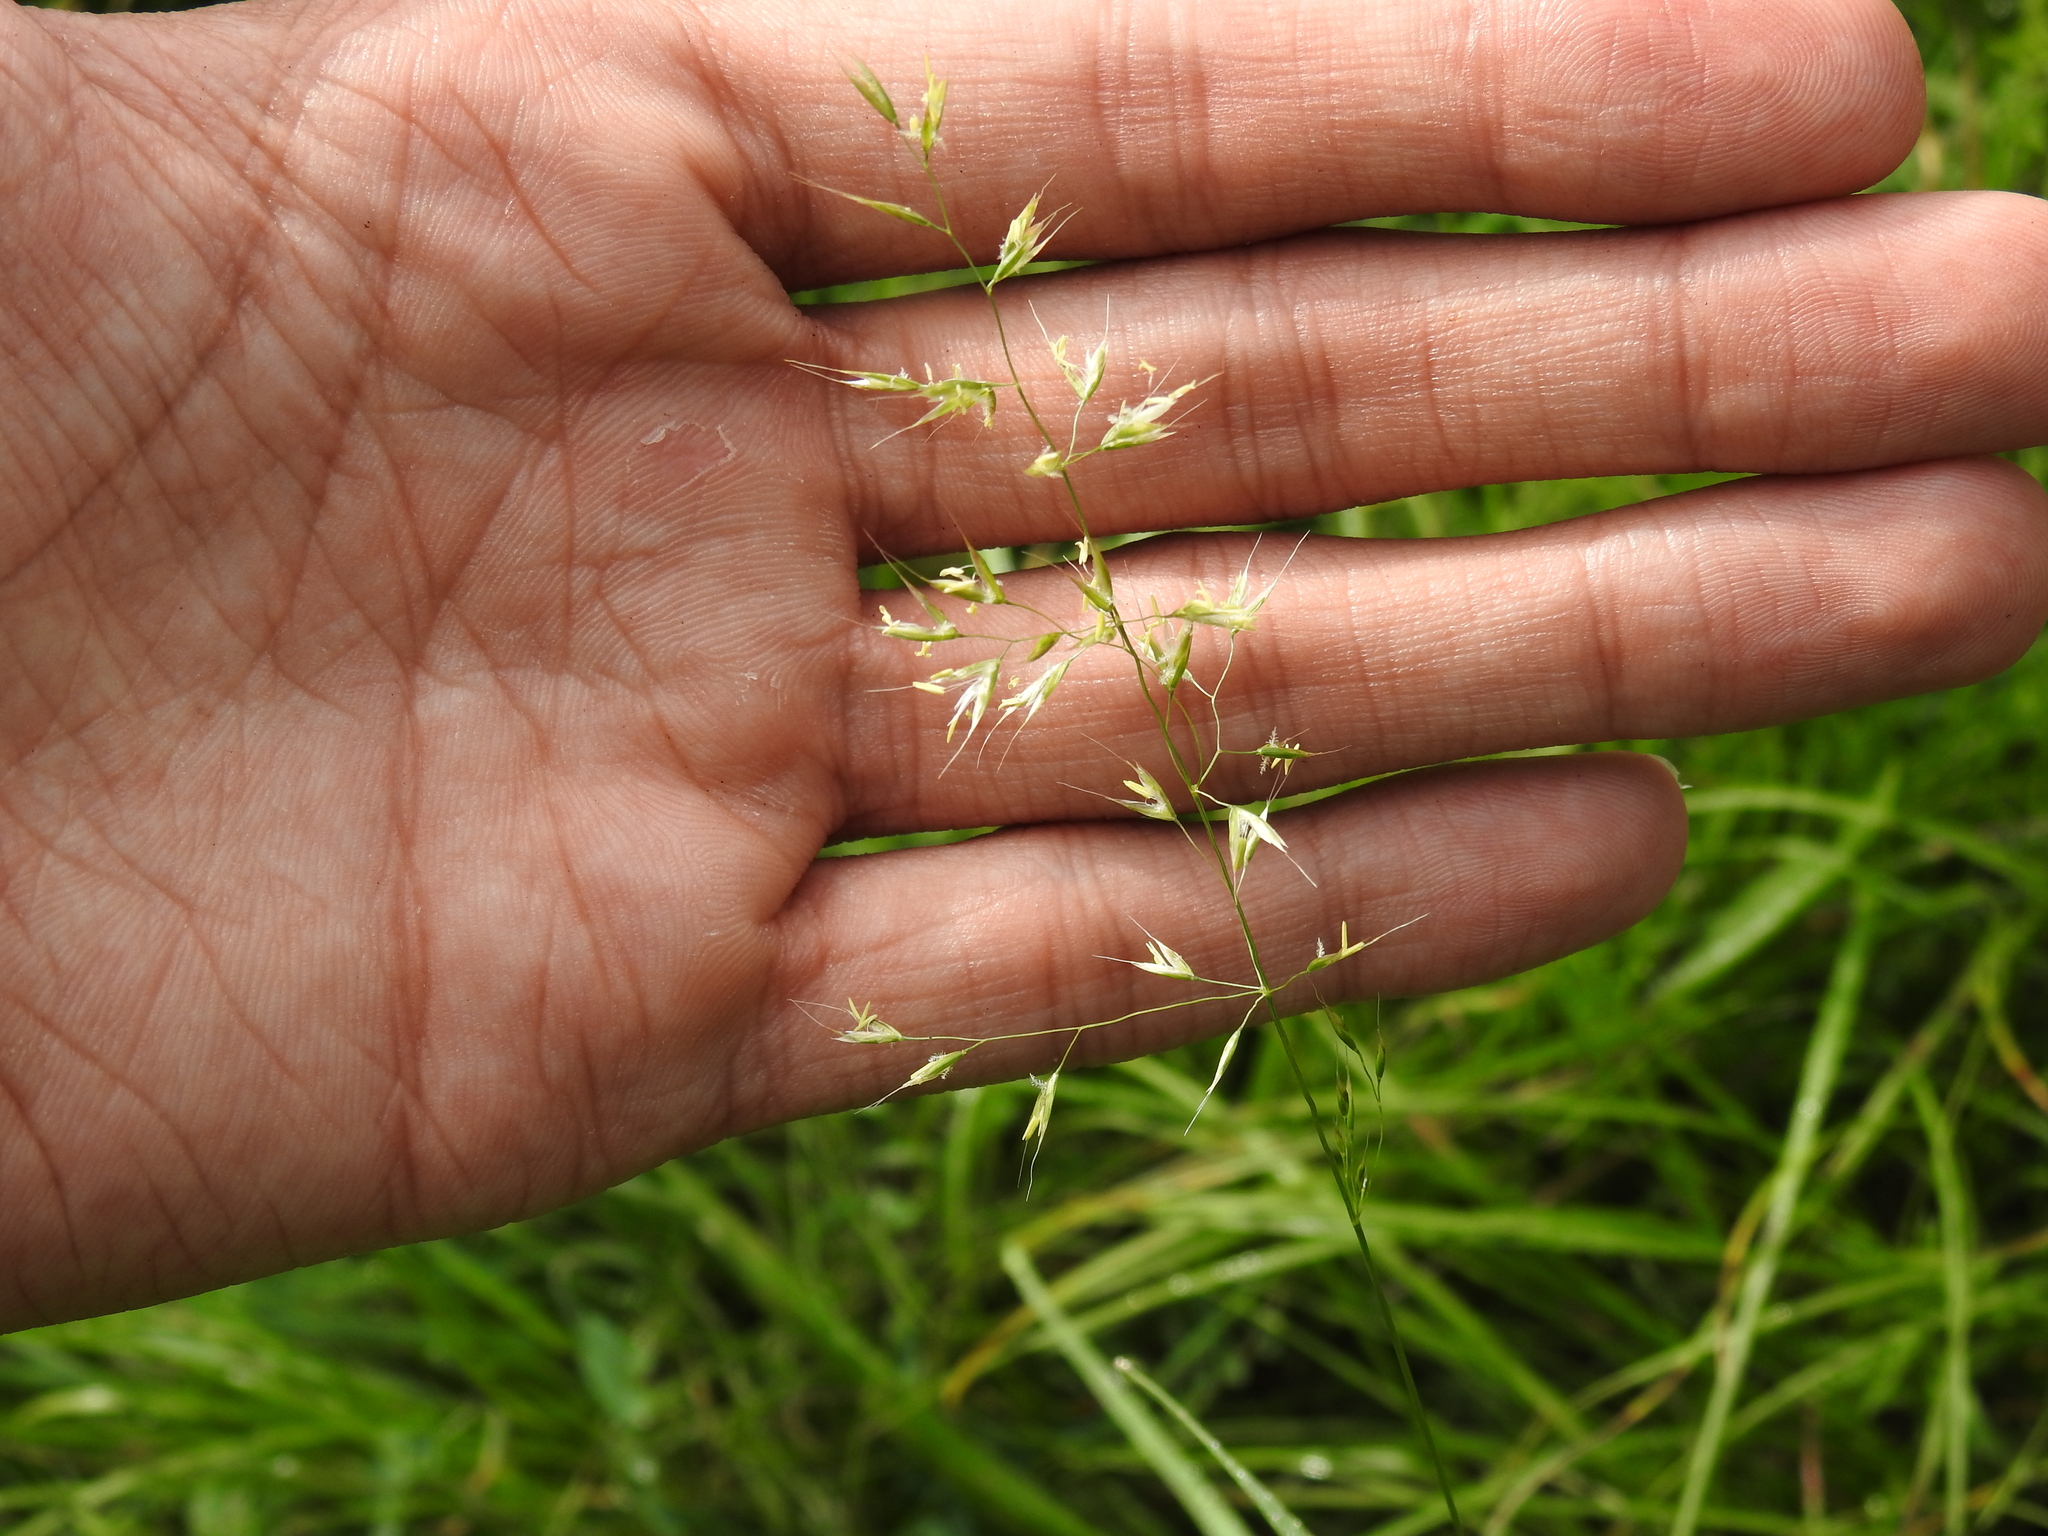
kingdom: Plantae
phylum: Tracheophyta
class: Liliopsida
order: Poales
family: Poaceae
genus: Trisetum
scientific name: Trisetum flavescens
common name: Yellow oat-grass
